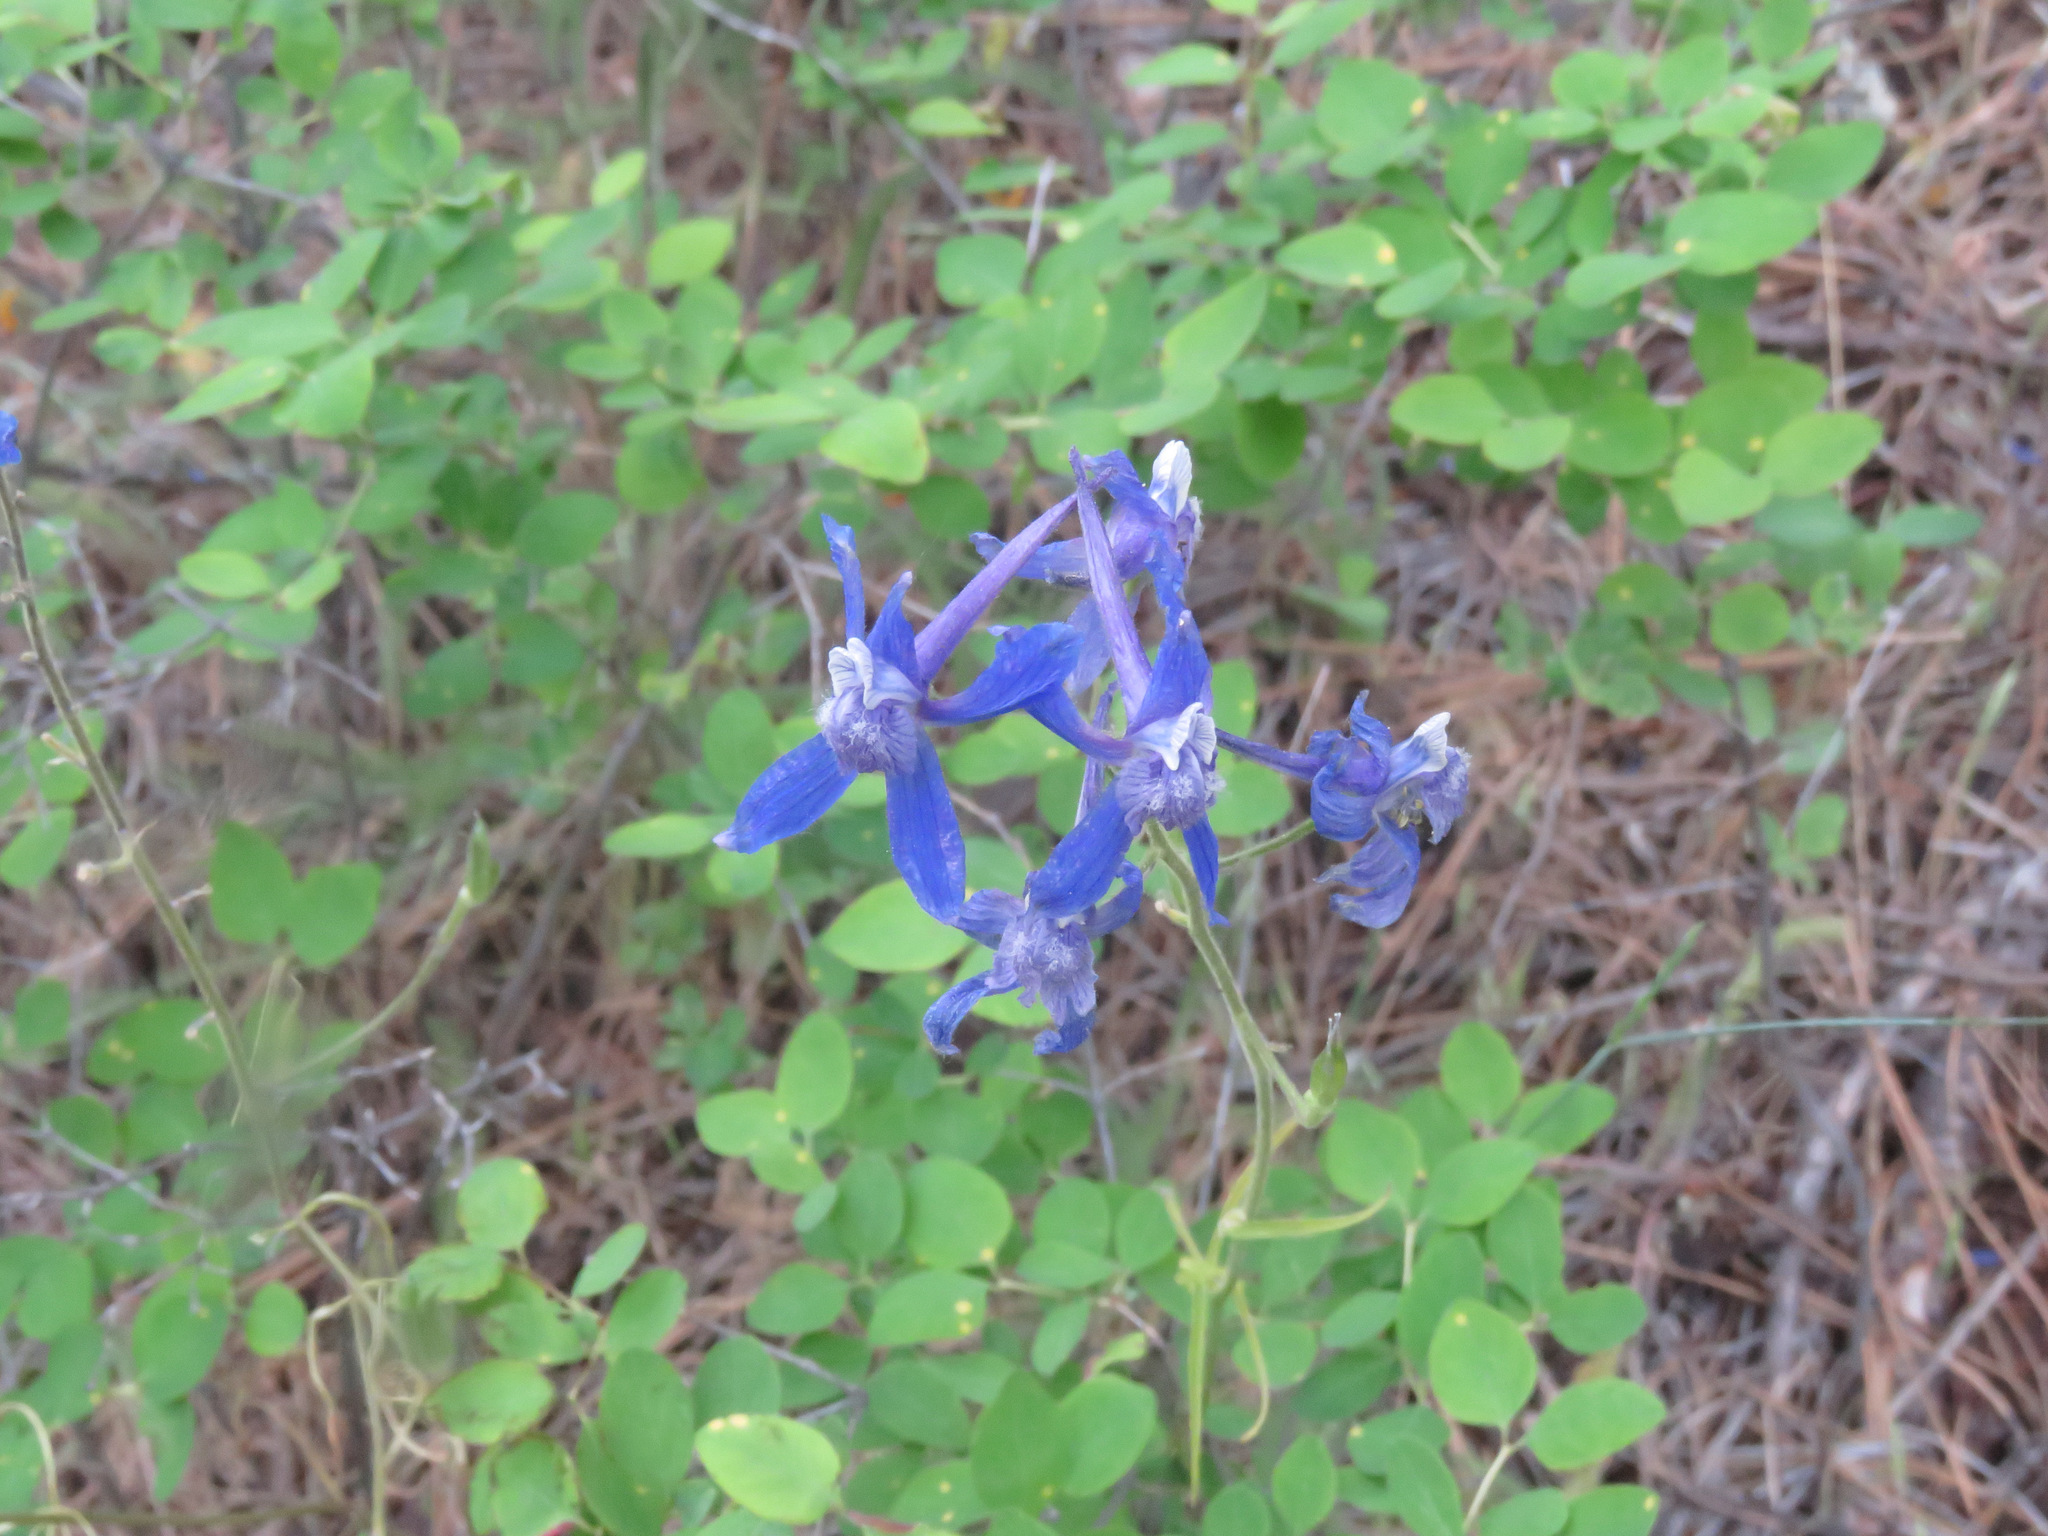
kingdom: Plantae
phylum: Tracheophyta
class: Magnoliopsida
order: Ranunculales
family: Ranunculaceae
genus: Delphinium
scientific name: Delphinium nuttallianum
